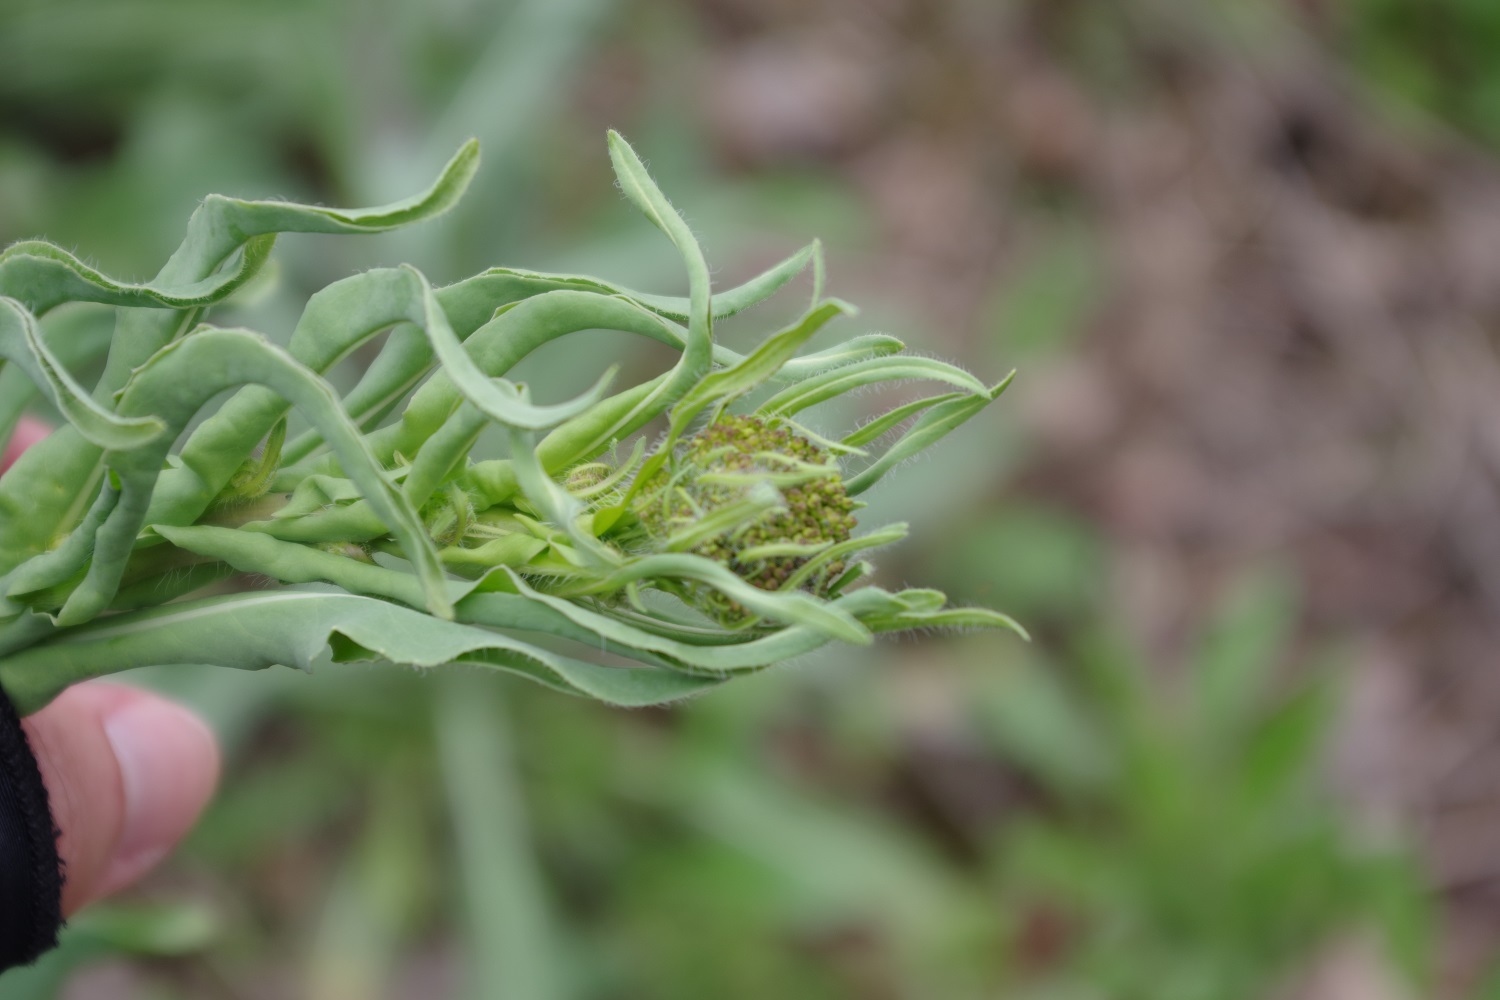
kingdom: Plantae
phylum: Tracheophyta
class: Magnoliopsida
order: Brassicales
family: Brassicaceae
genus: Isatis
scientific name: Isatis tinctoria
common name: Woad
